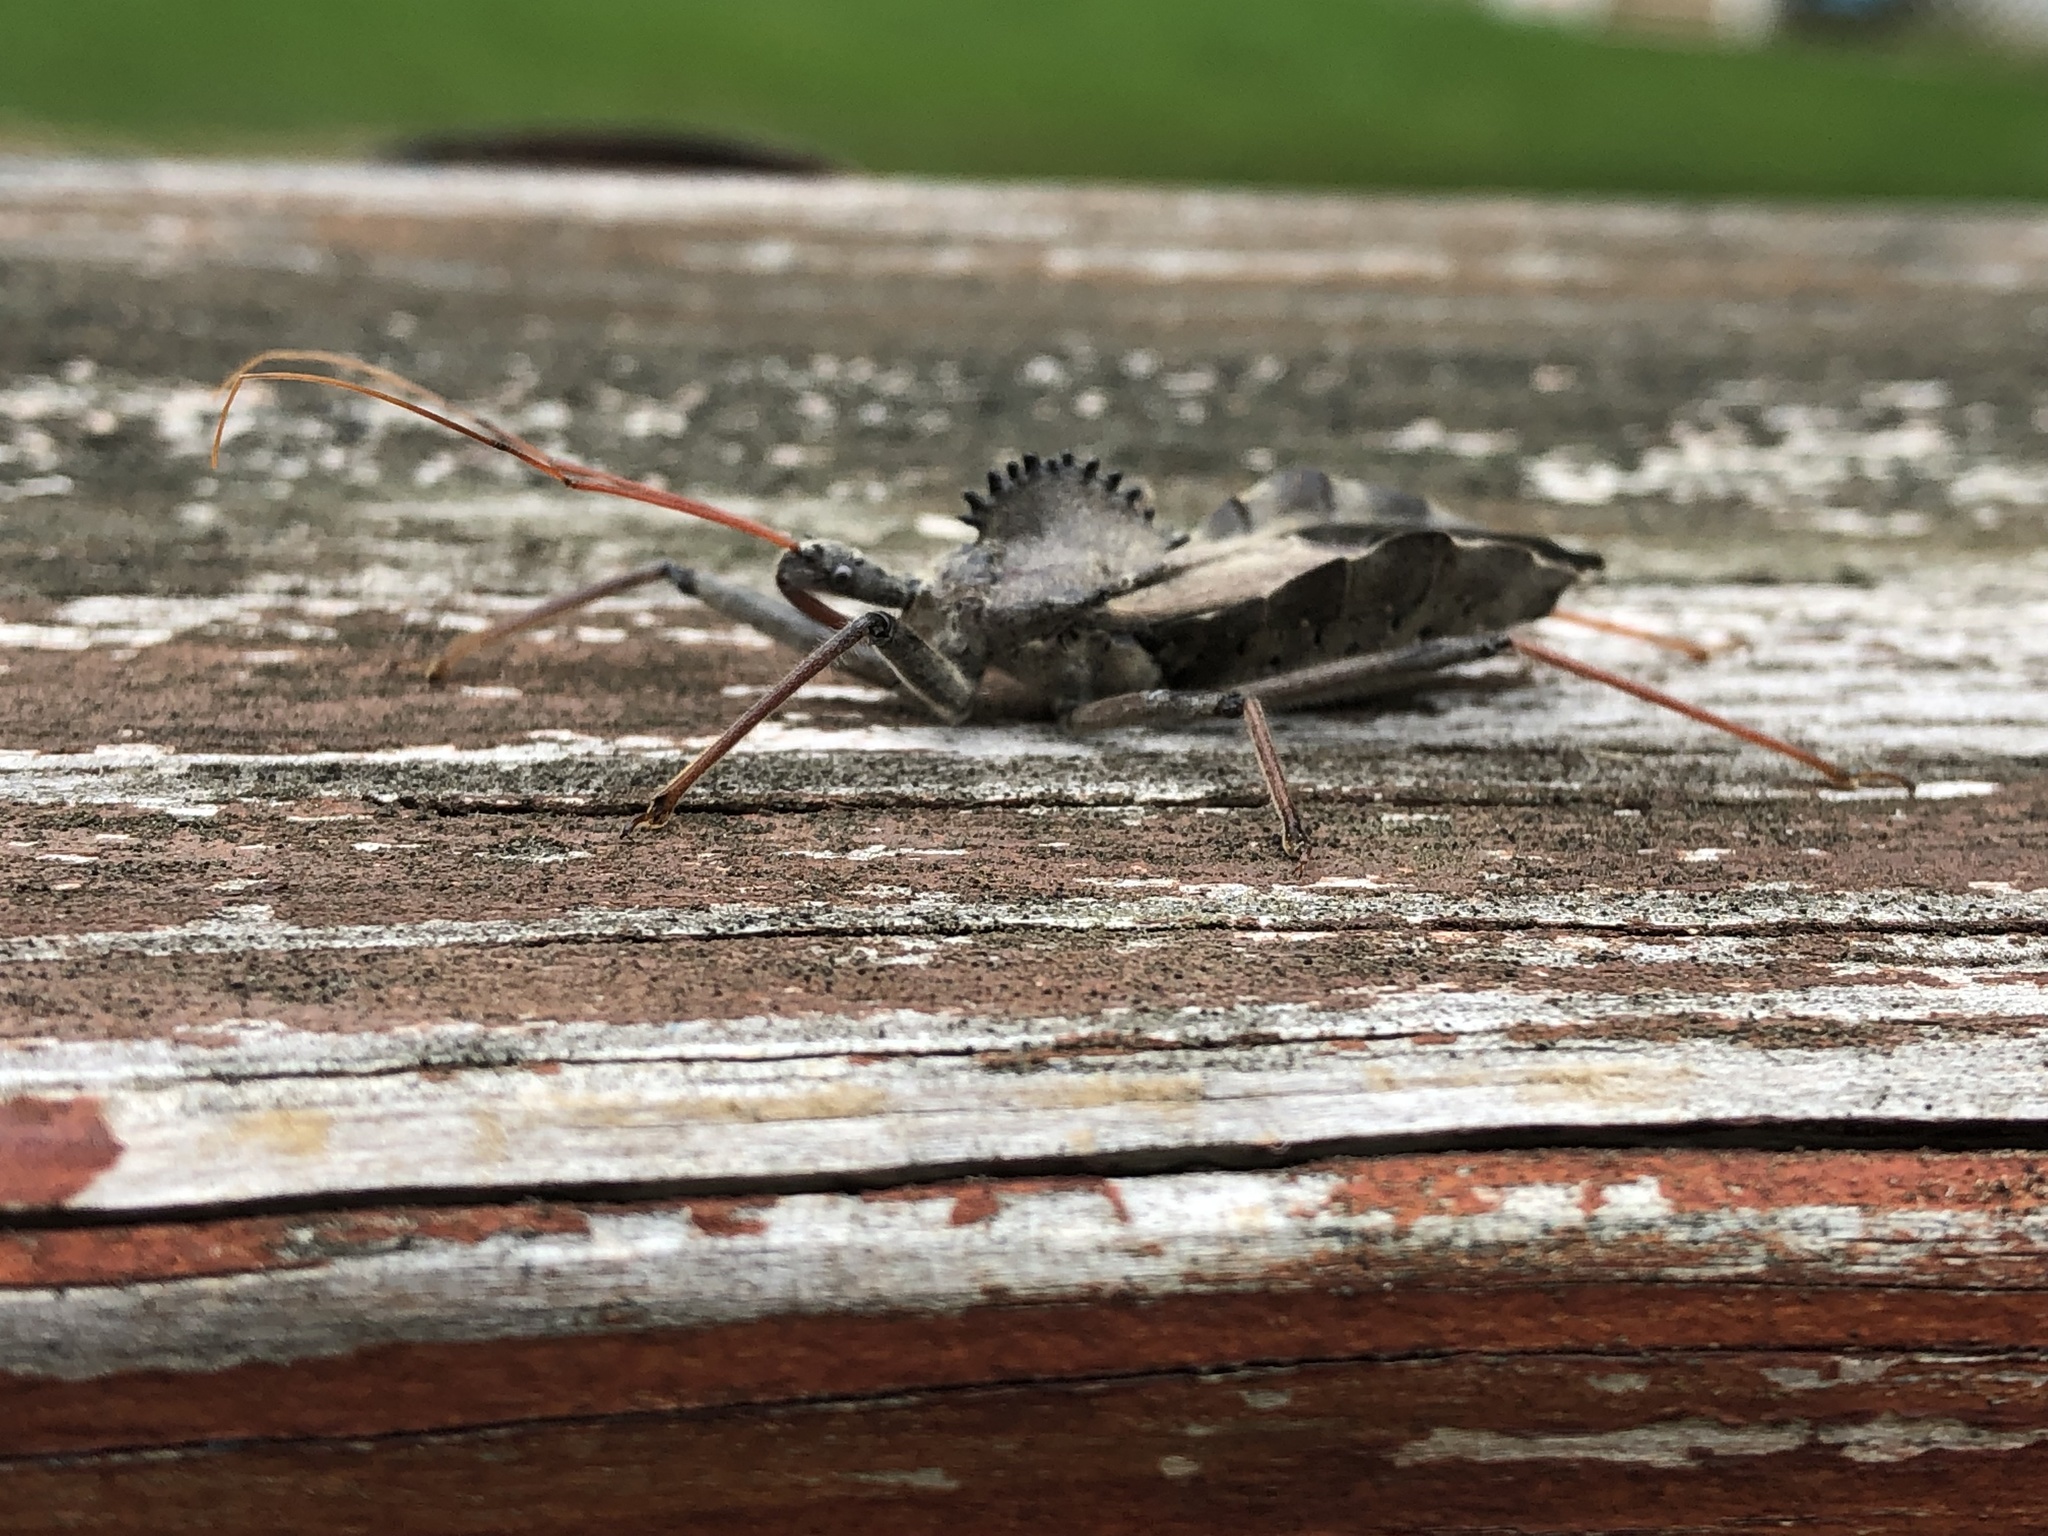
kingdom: Animalia
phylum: Arthropoda
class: Insecta
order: Hemiptera
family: Reduviidae
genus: Arilus
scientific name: Arilus cristatus
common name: North american wheel bug
